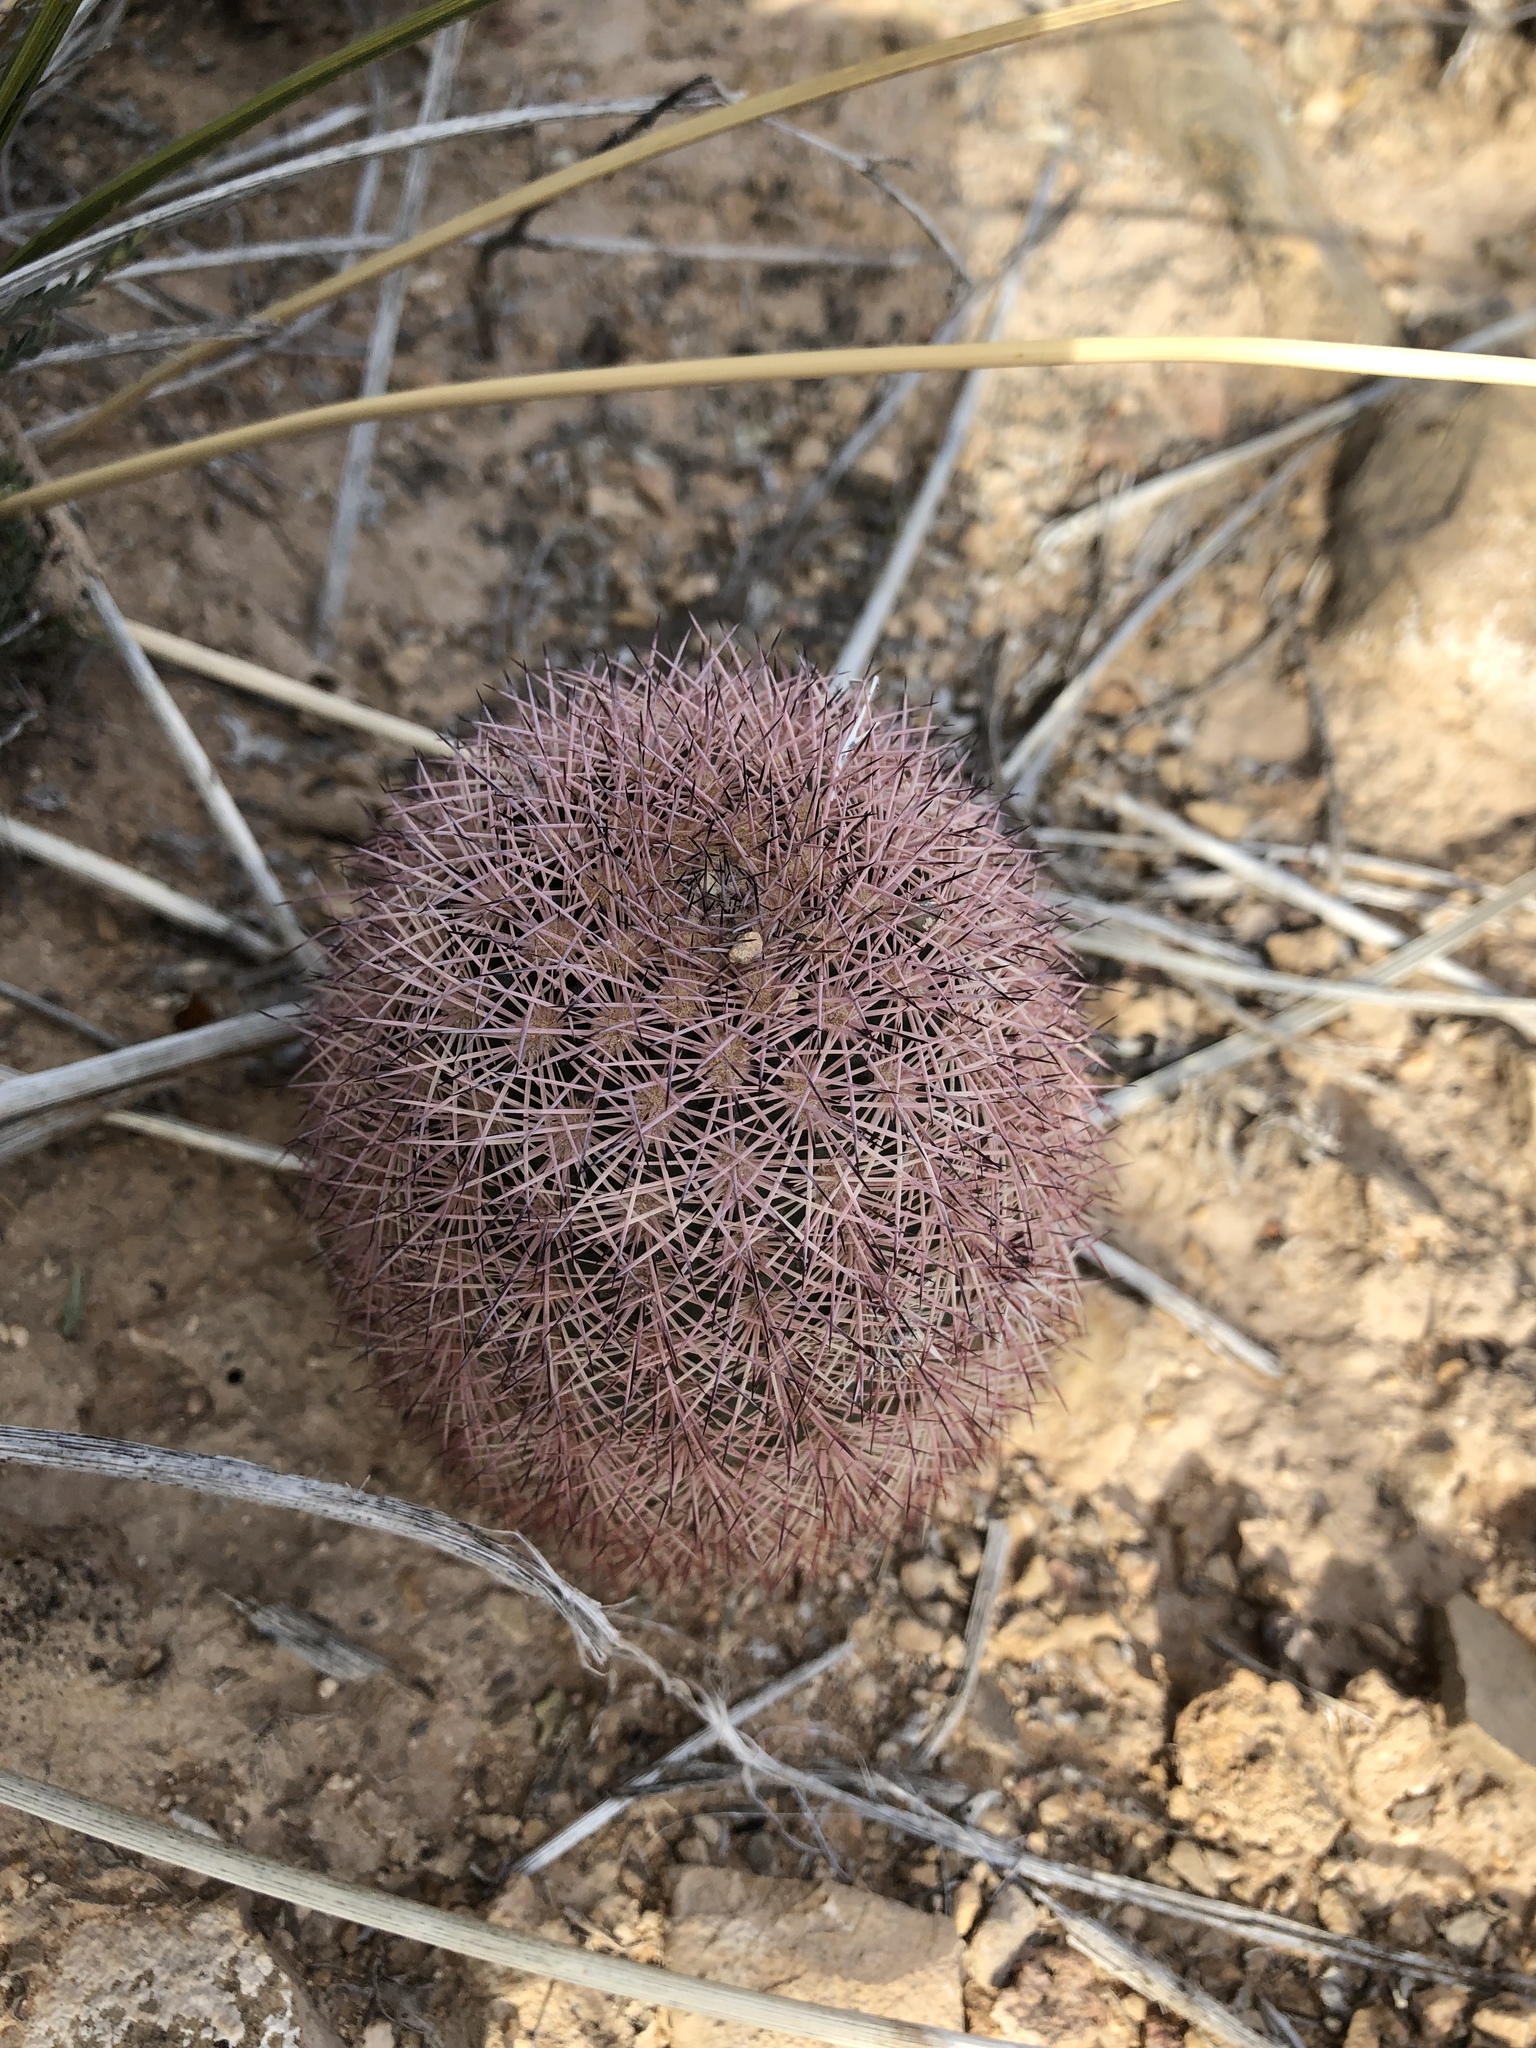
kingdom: Plantae
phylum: Tracheophyta
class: Magnoliopsida
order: Caryophyllales
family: Cactaceae
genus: Echinocereus
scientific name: Echinocereus dasyacanthus
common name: Spiny hedgehog cactus
